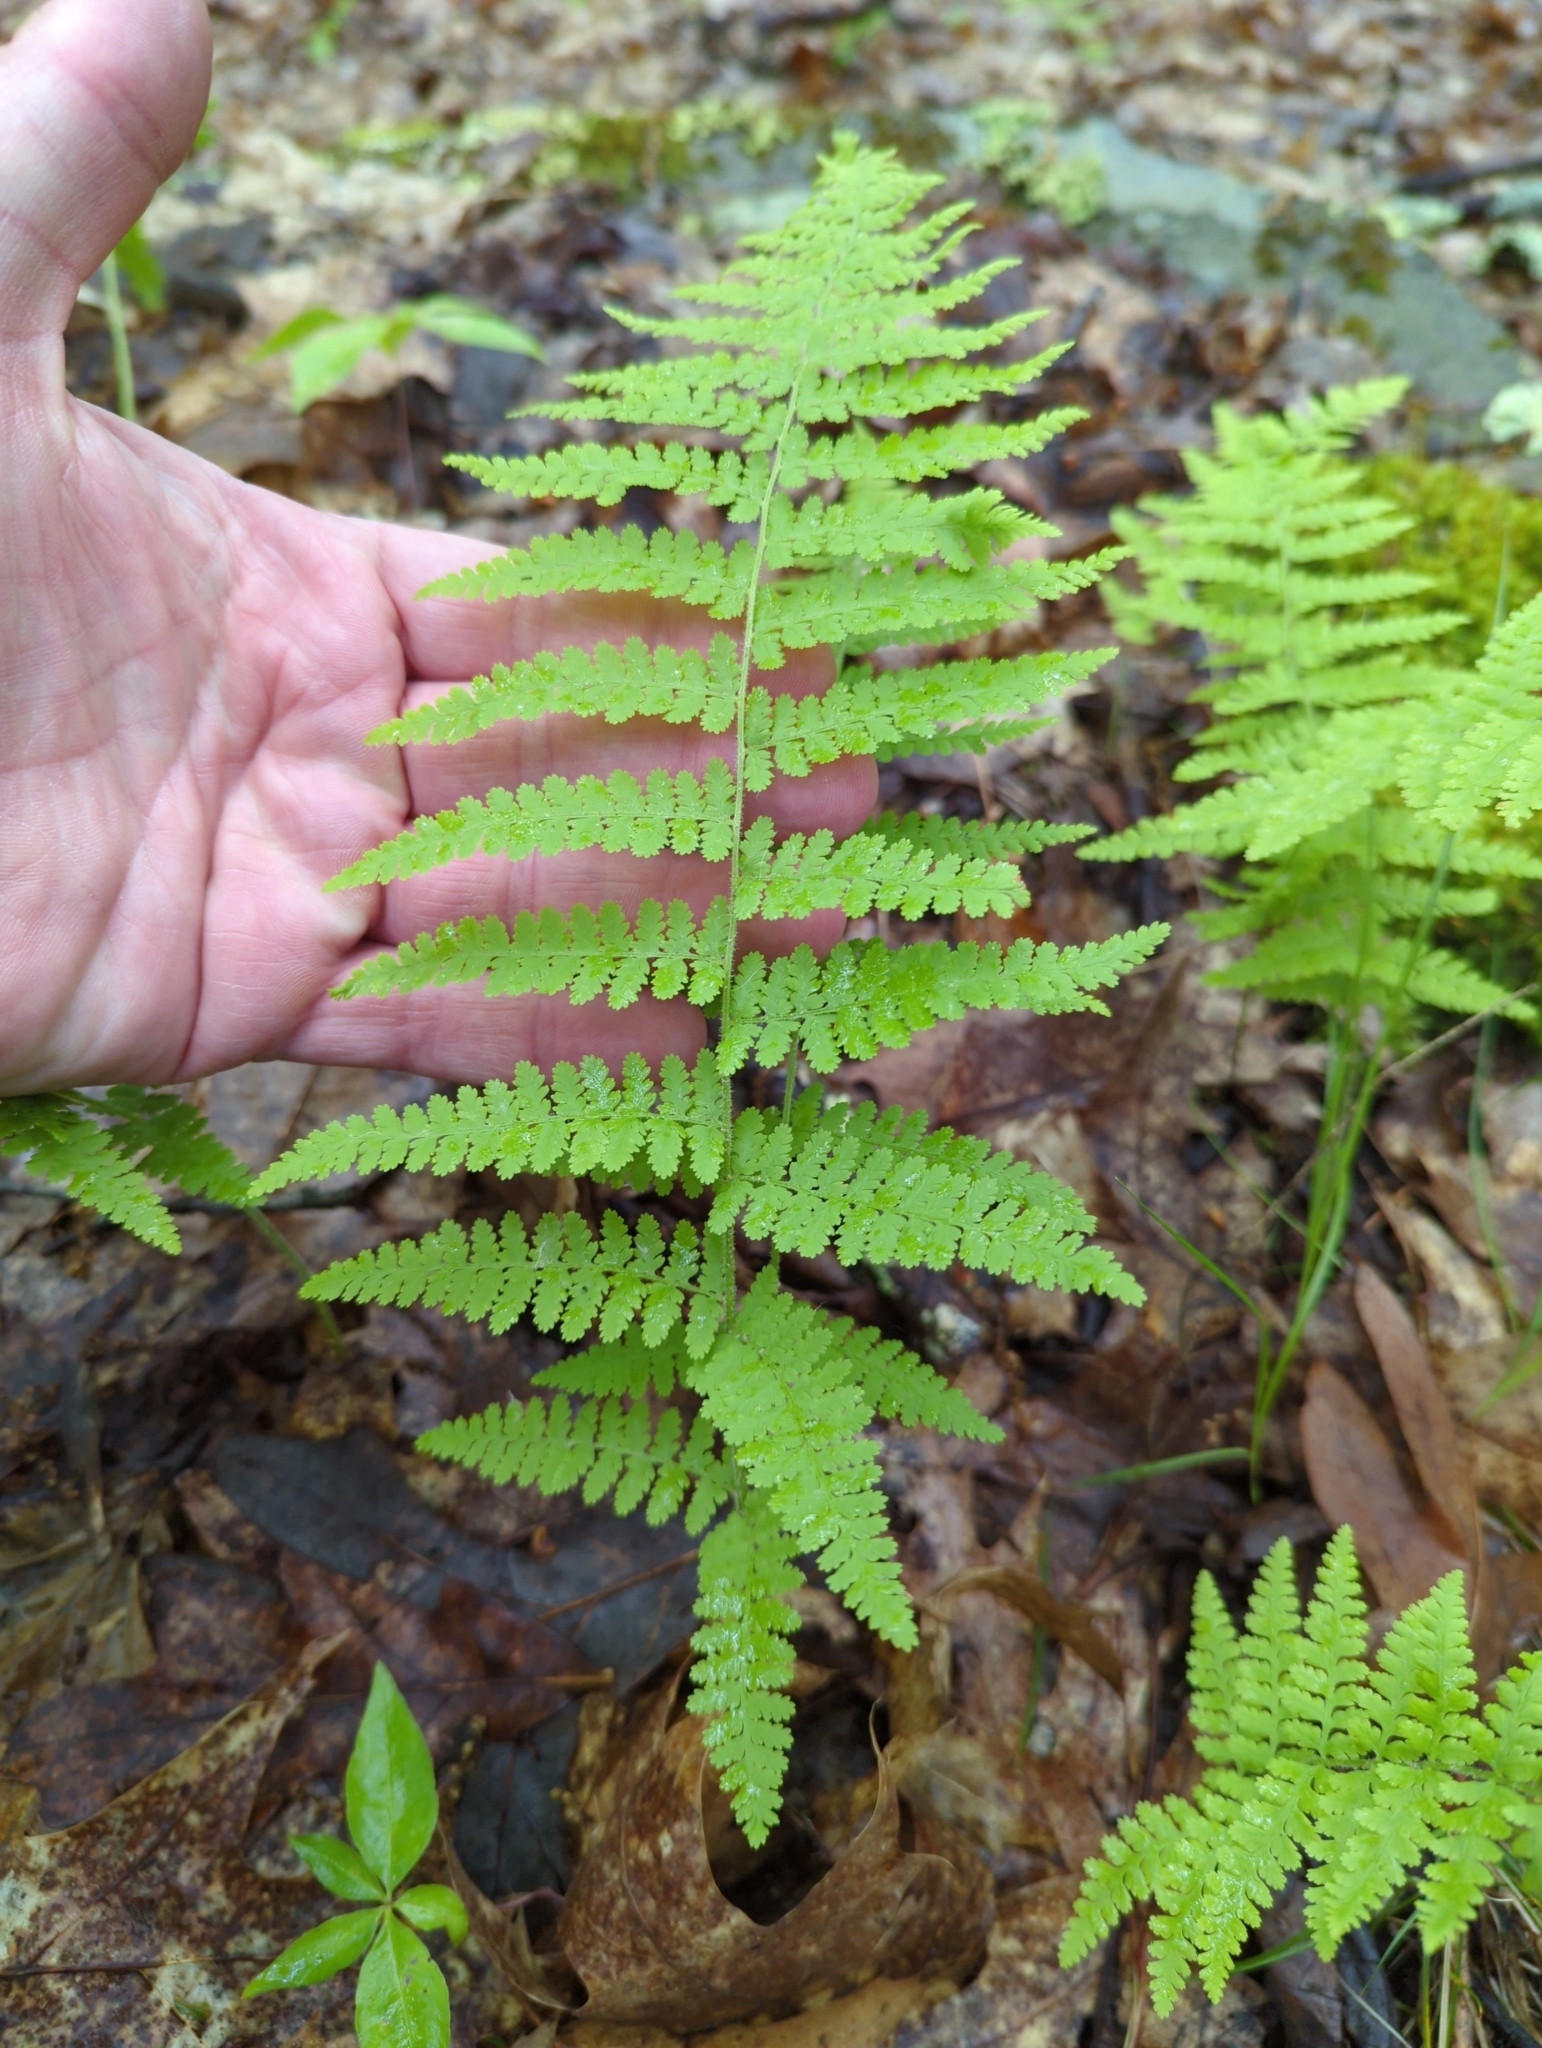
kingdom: Plantae
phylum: Tracheophyta
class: Polypodiopsida
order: Polypodiales
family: Dennstaedtiaceae
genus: Sitobolium
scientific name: Sitobolium punctilobum
